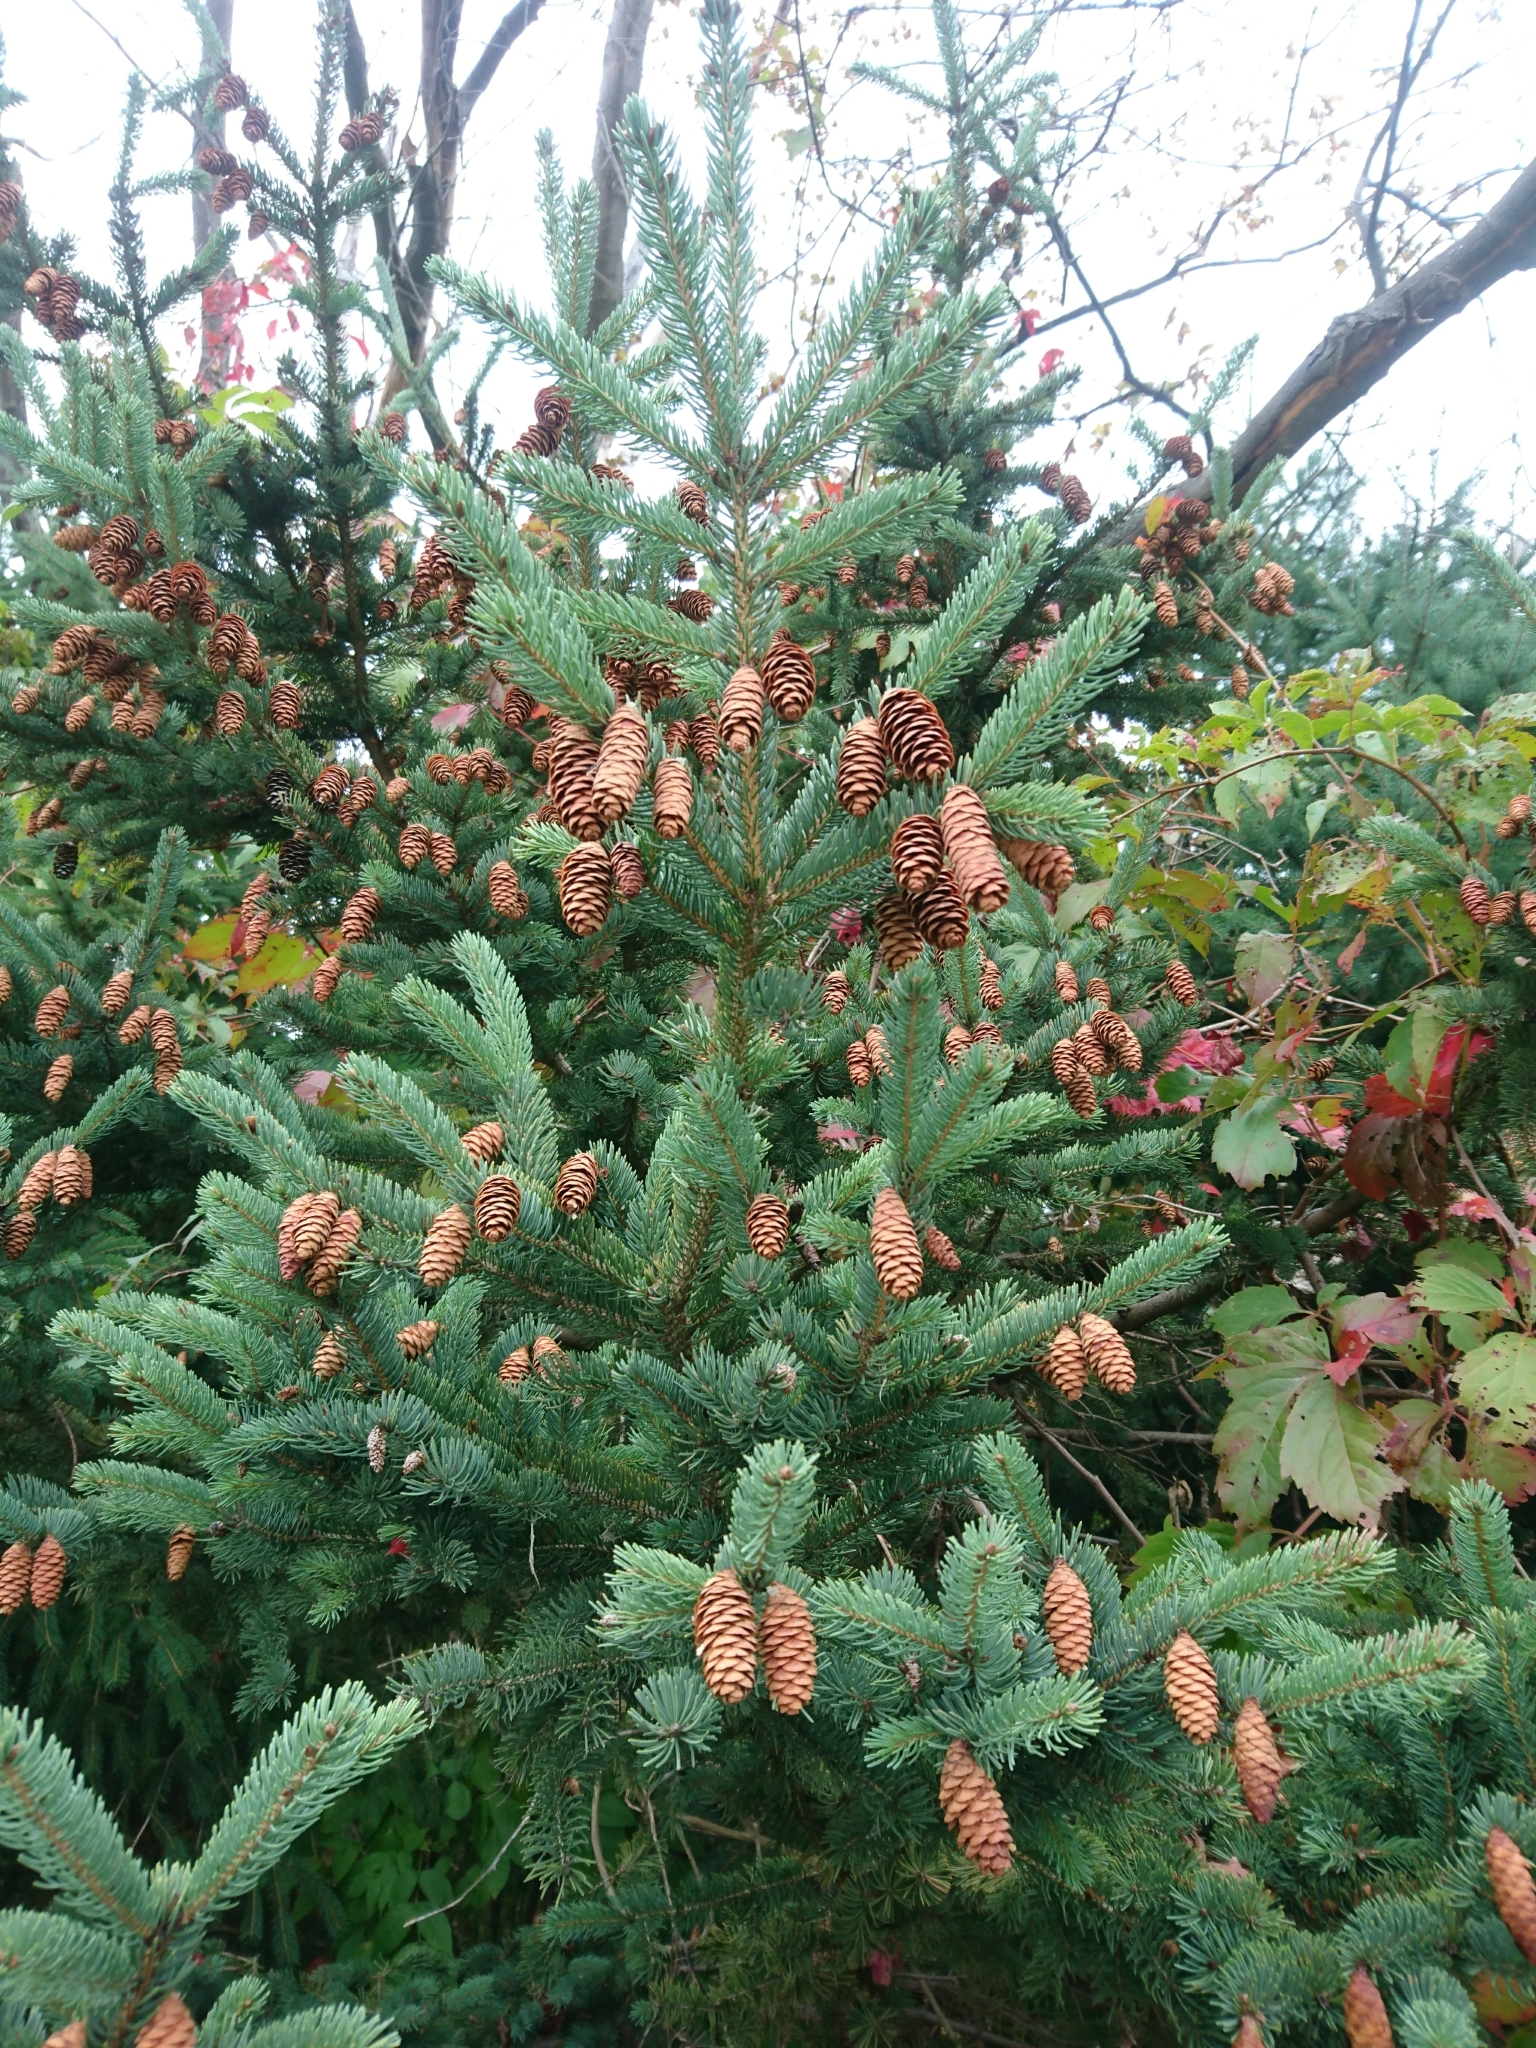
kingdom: Plantae
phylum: Tracheophyta
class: Pinopsida
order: Pinales
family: Pinaceae
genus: Picea
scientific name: Picea glauca
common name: White spruce
